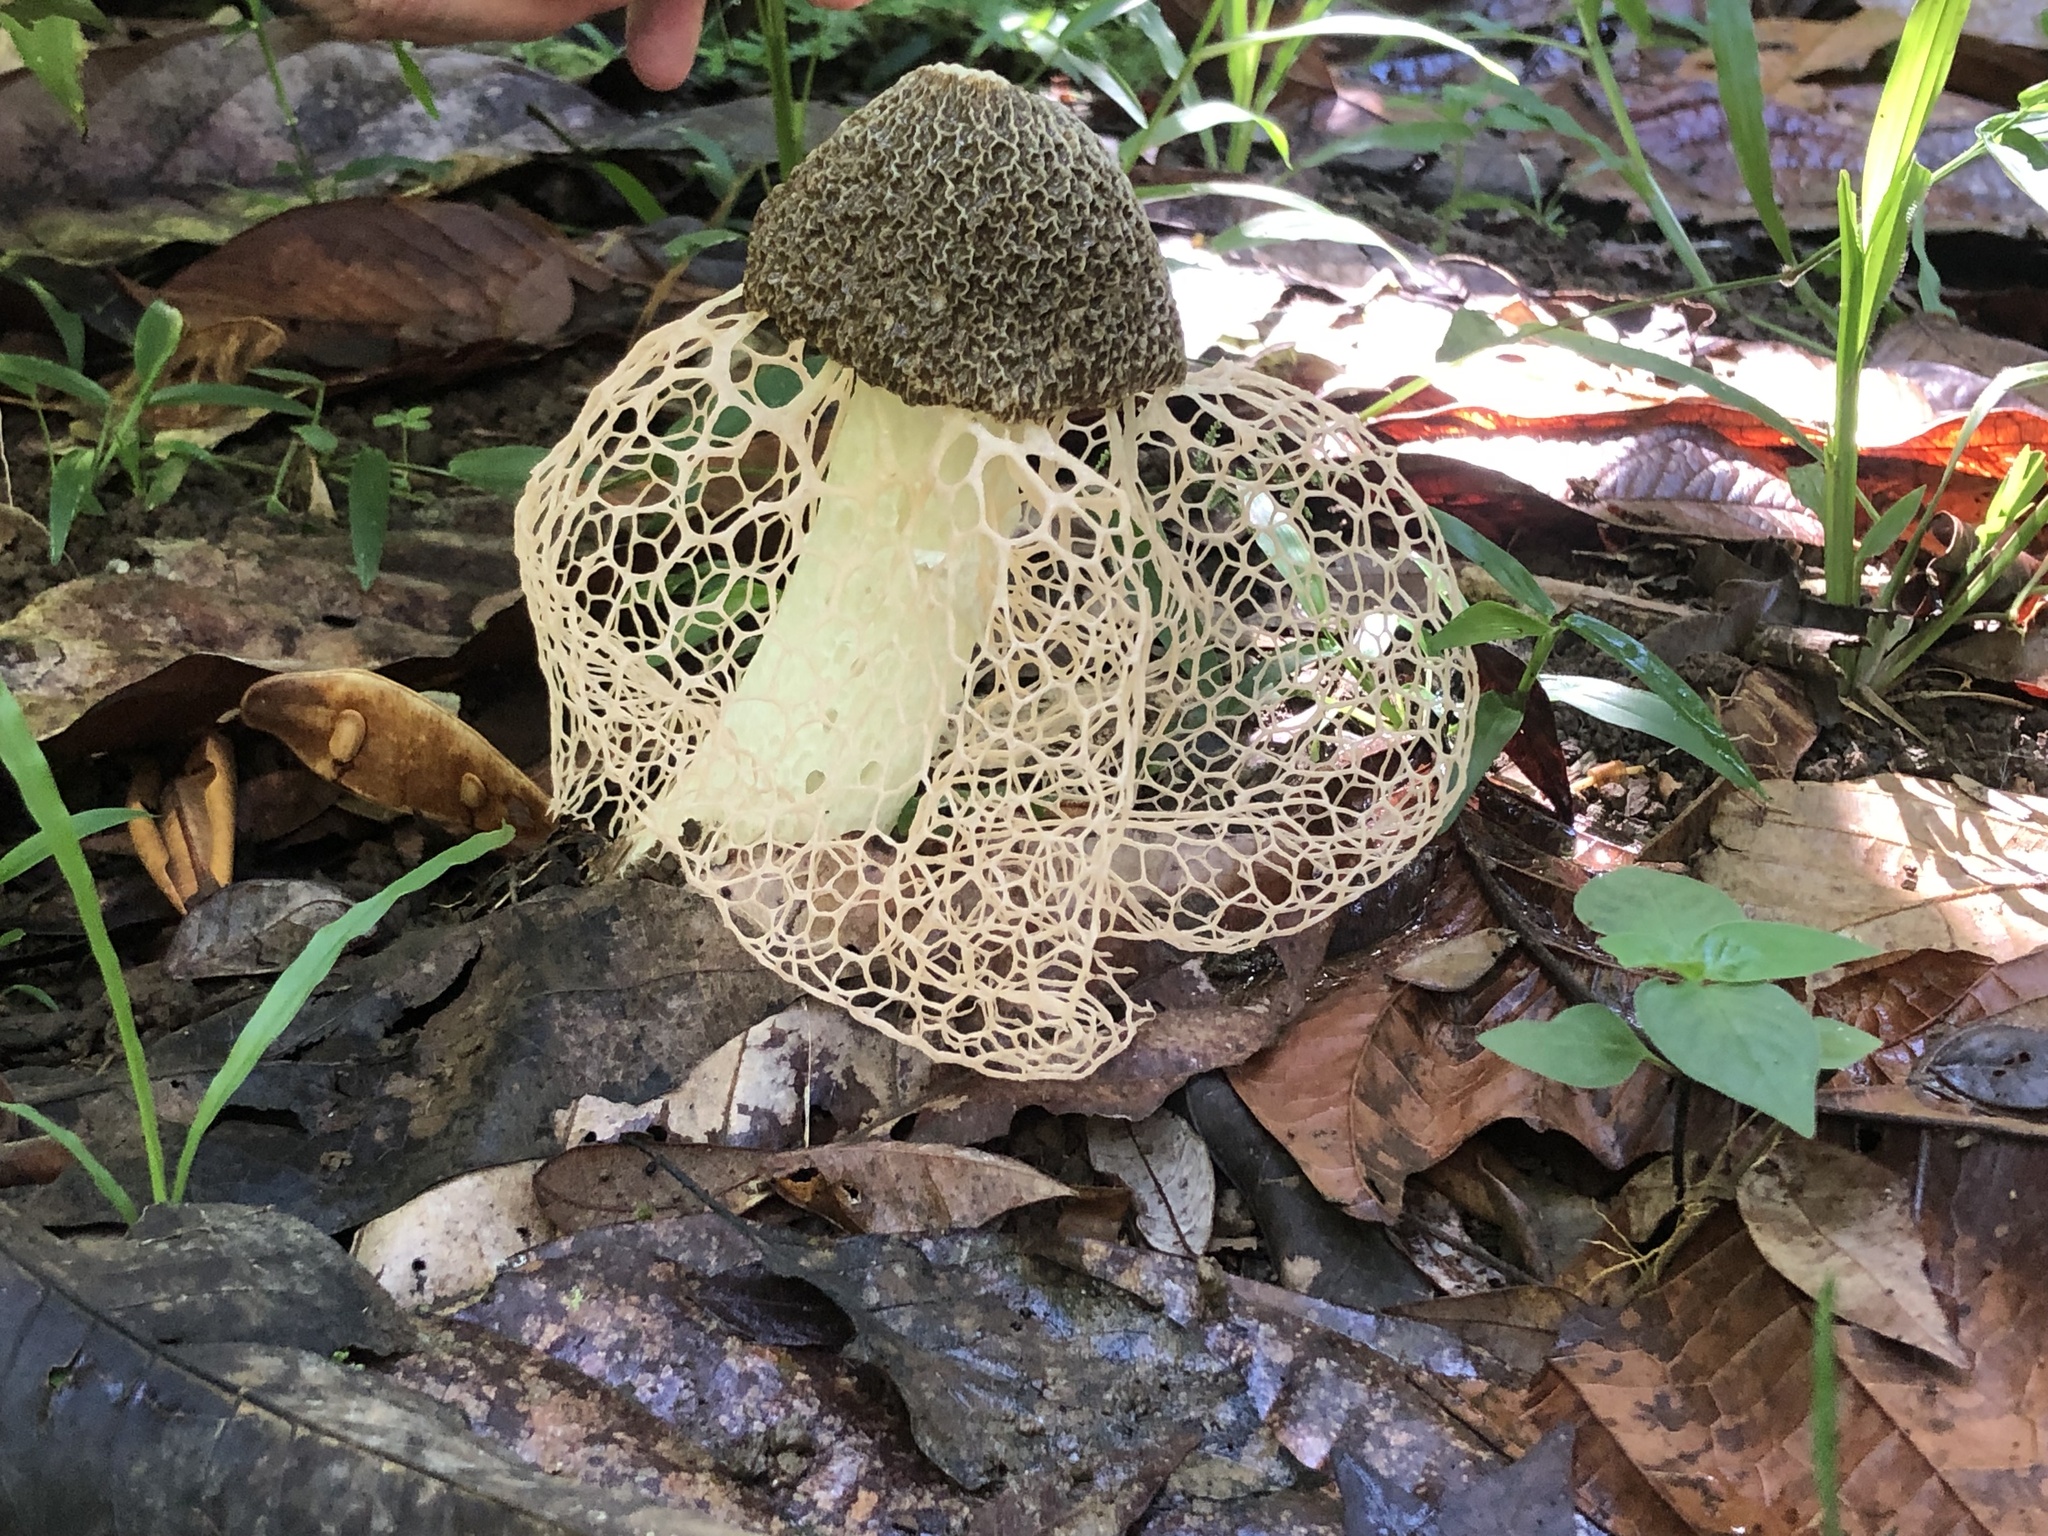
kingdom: Fungi
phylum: Basidiomycota
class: Agaricomycetes
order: Phallales
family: Phallaceae
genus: Phallus
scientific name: Phallus haitangensis
